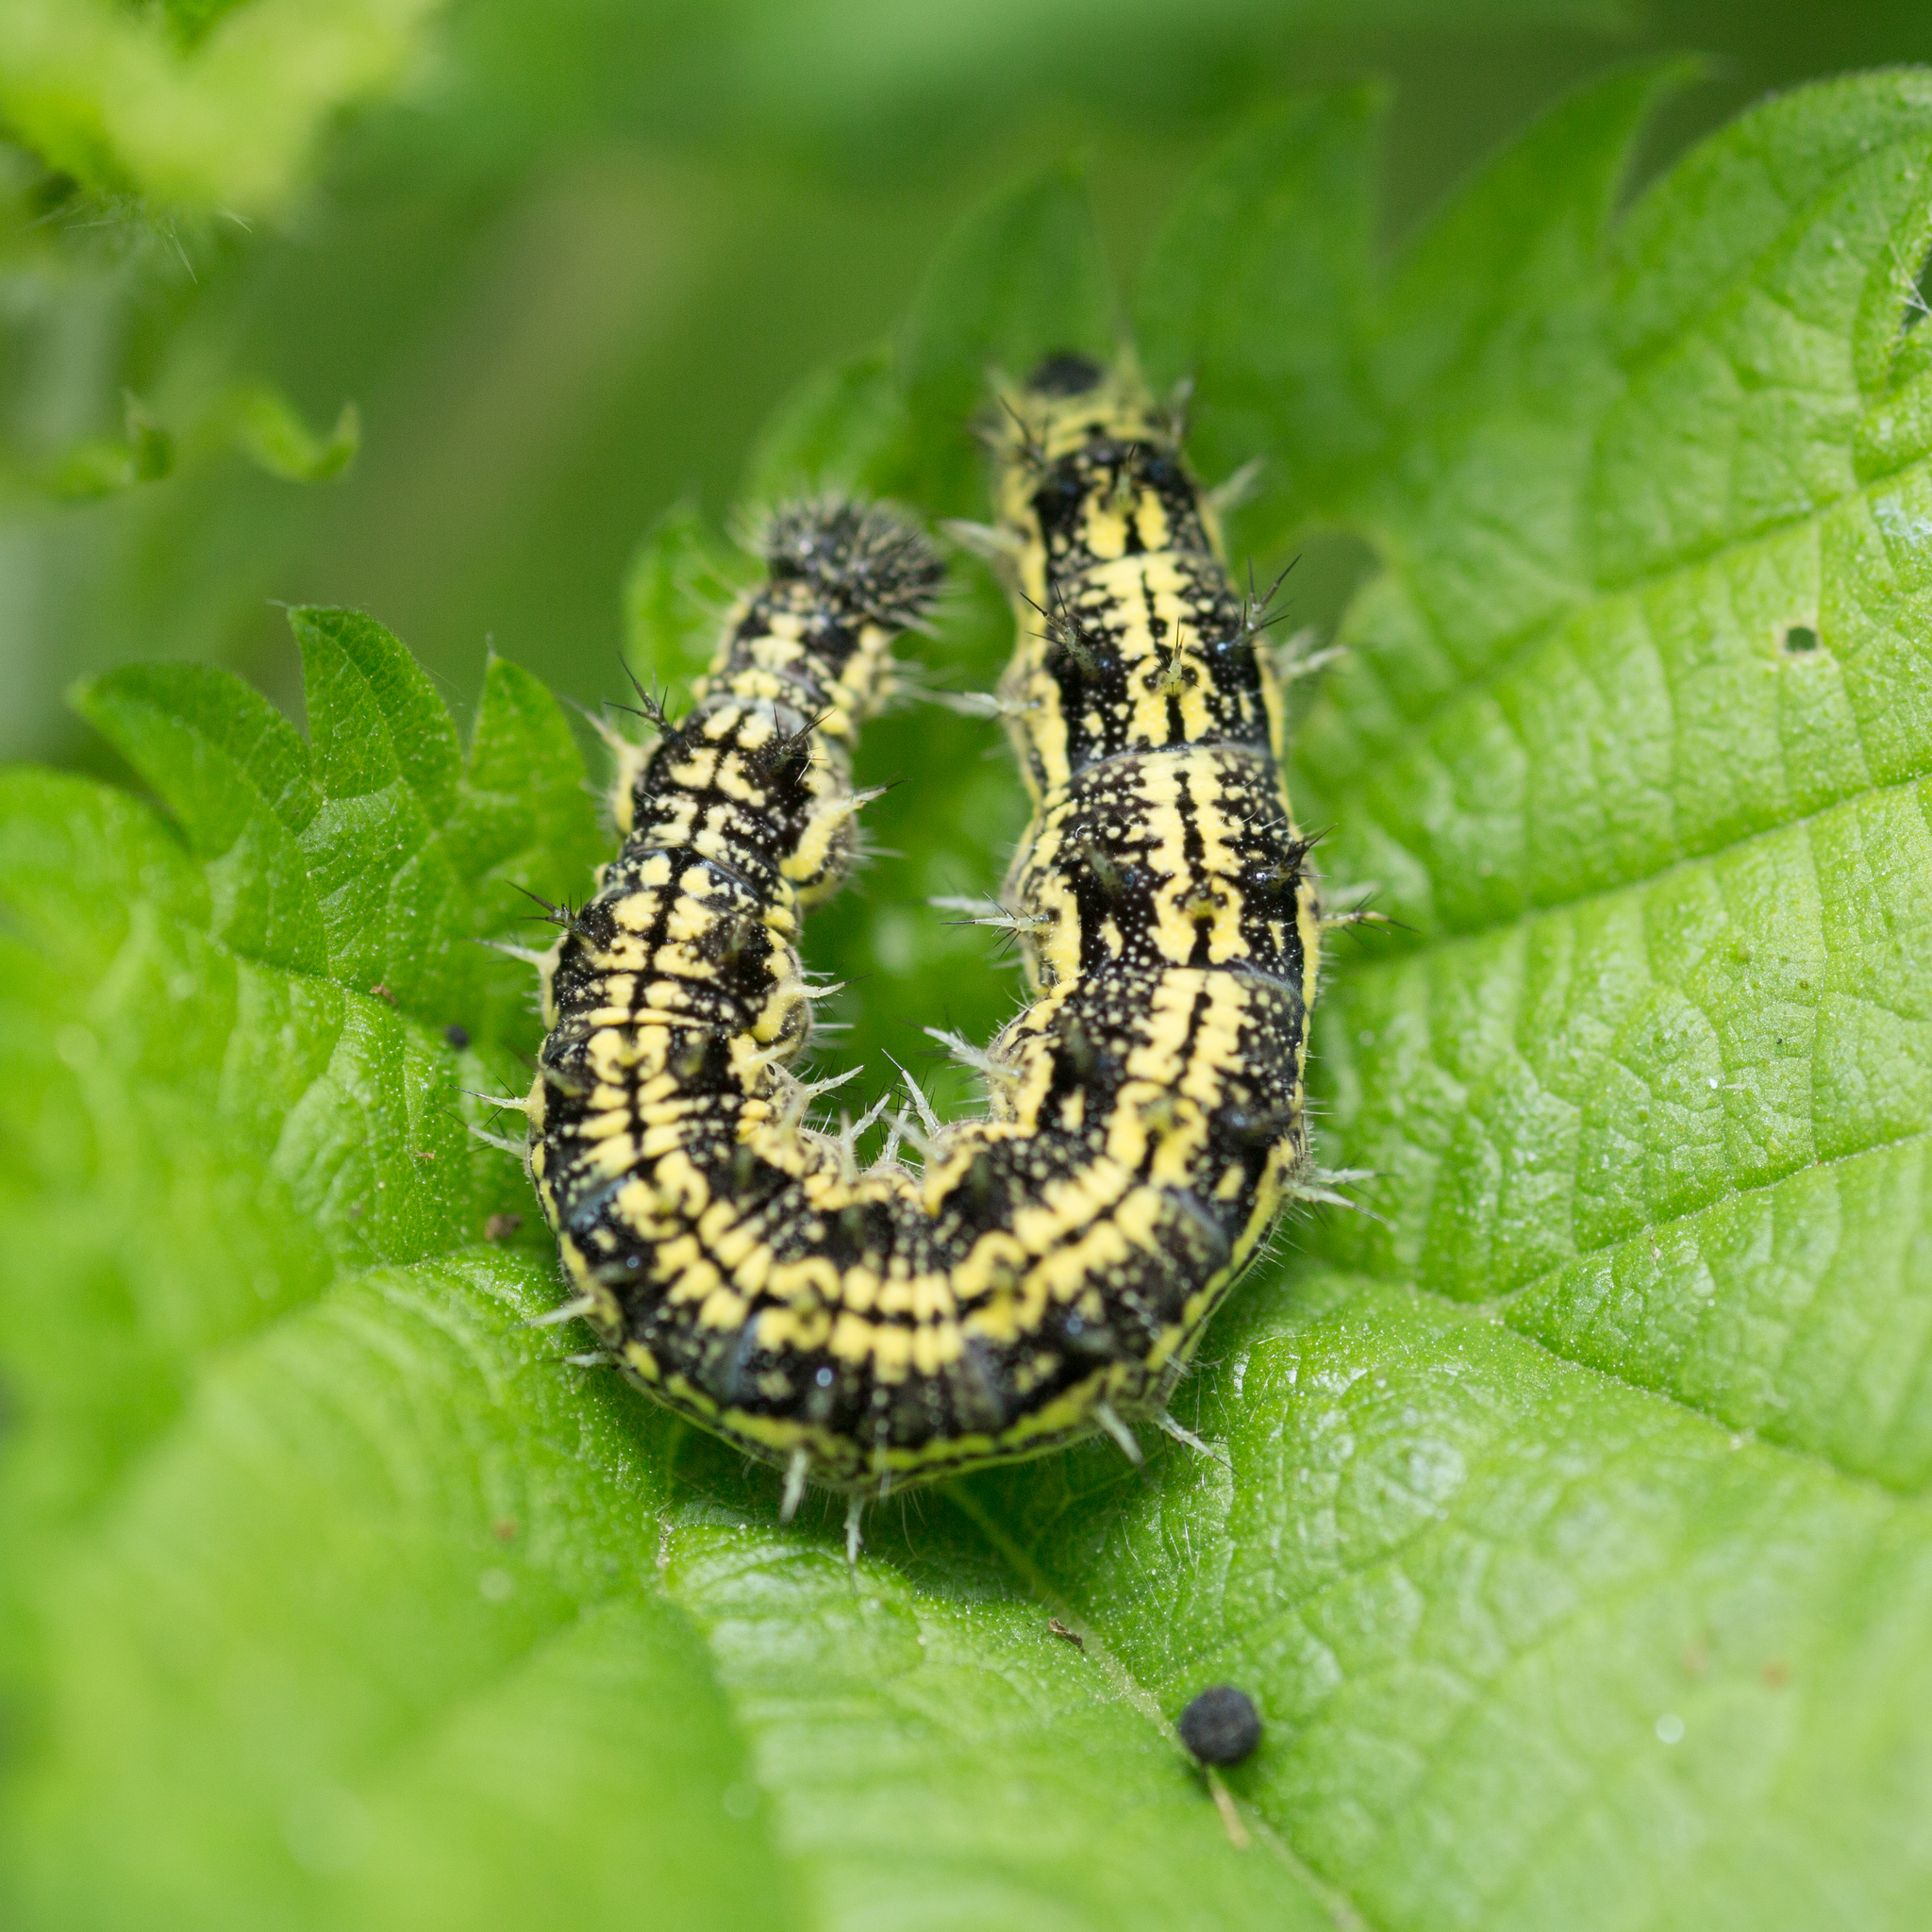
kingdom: Animalia
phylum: Arthropoda
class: Insecta
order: Lepidoptera
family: Nymphalidae
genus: Aglais
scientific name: Aglais urticae
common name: Small tortoiseshell
